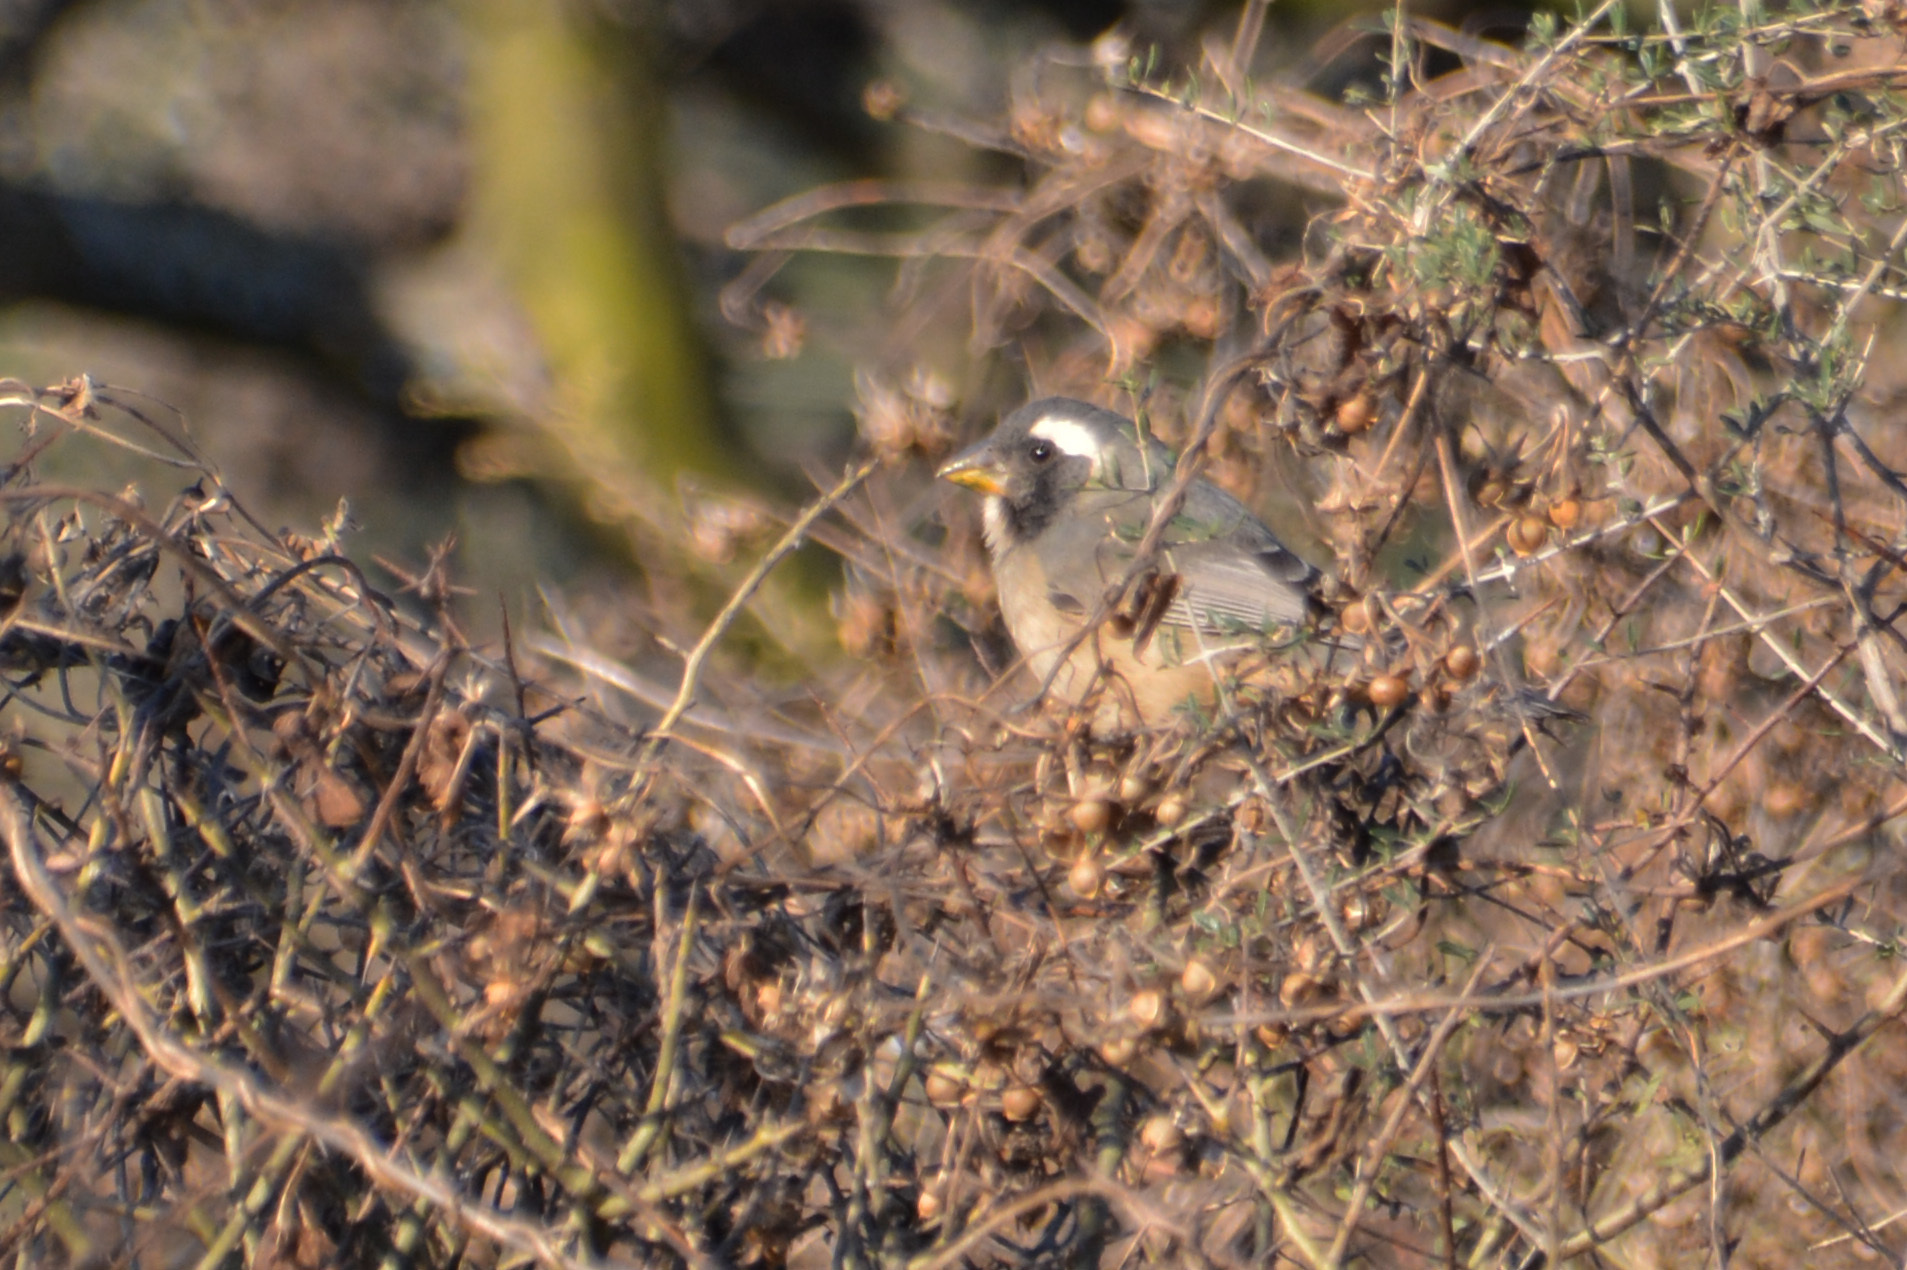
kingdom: Animalia
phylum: Chordata
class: Aves
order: Passeriformes
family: Thraupidae
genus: Saltator
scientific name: Saltator aurantiirostris
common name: Golden-billed saltator
